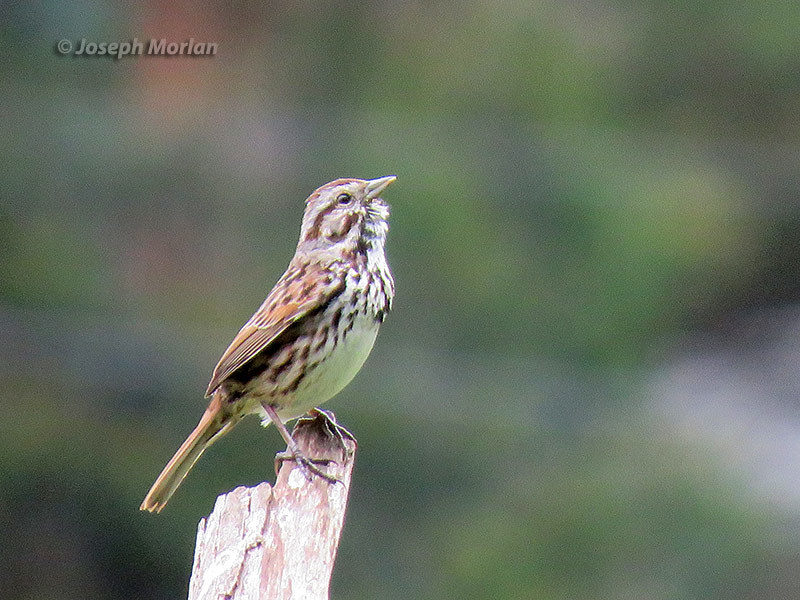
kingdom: Animalia
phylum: Chordata
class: Aves
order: Passeriformes
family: Passerellidae
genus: Melospiza
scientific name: Melospiza melodia
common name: Song sparrow
